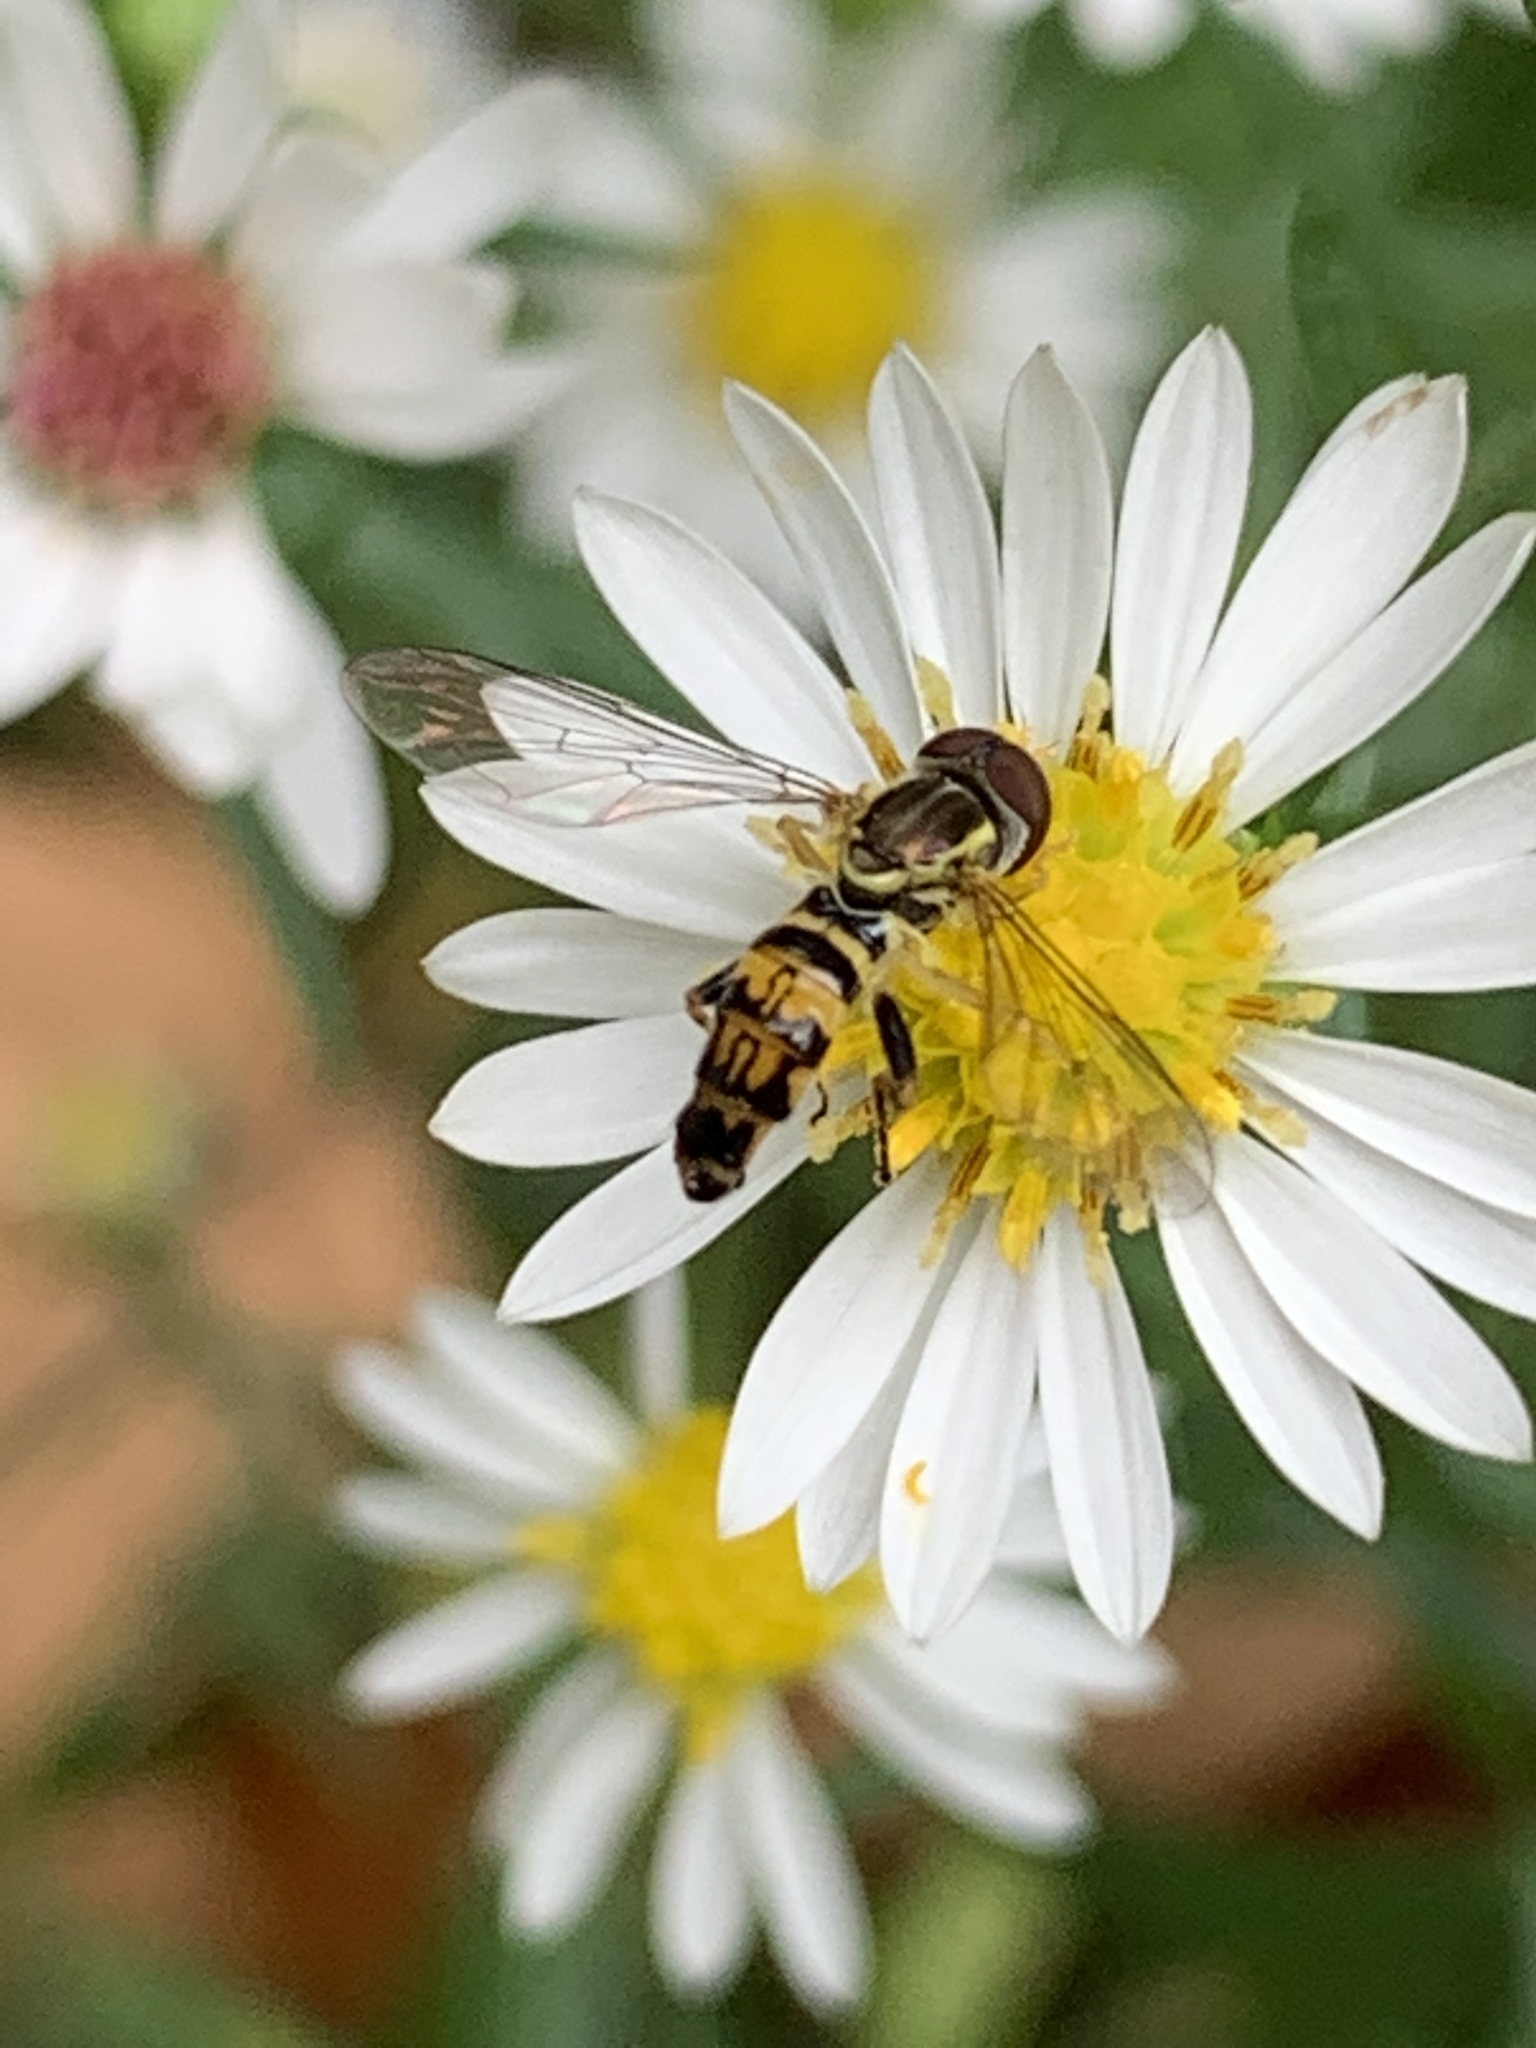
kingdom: Animalia
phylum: Arthropoda
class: Insecta
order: Diptera
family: Syrphidae
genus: Toxomerus
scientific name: Toxomerus geminatus
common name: Eastern calligrapher
